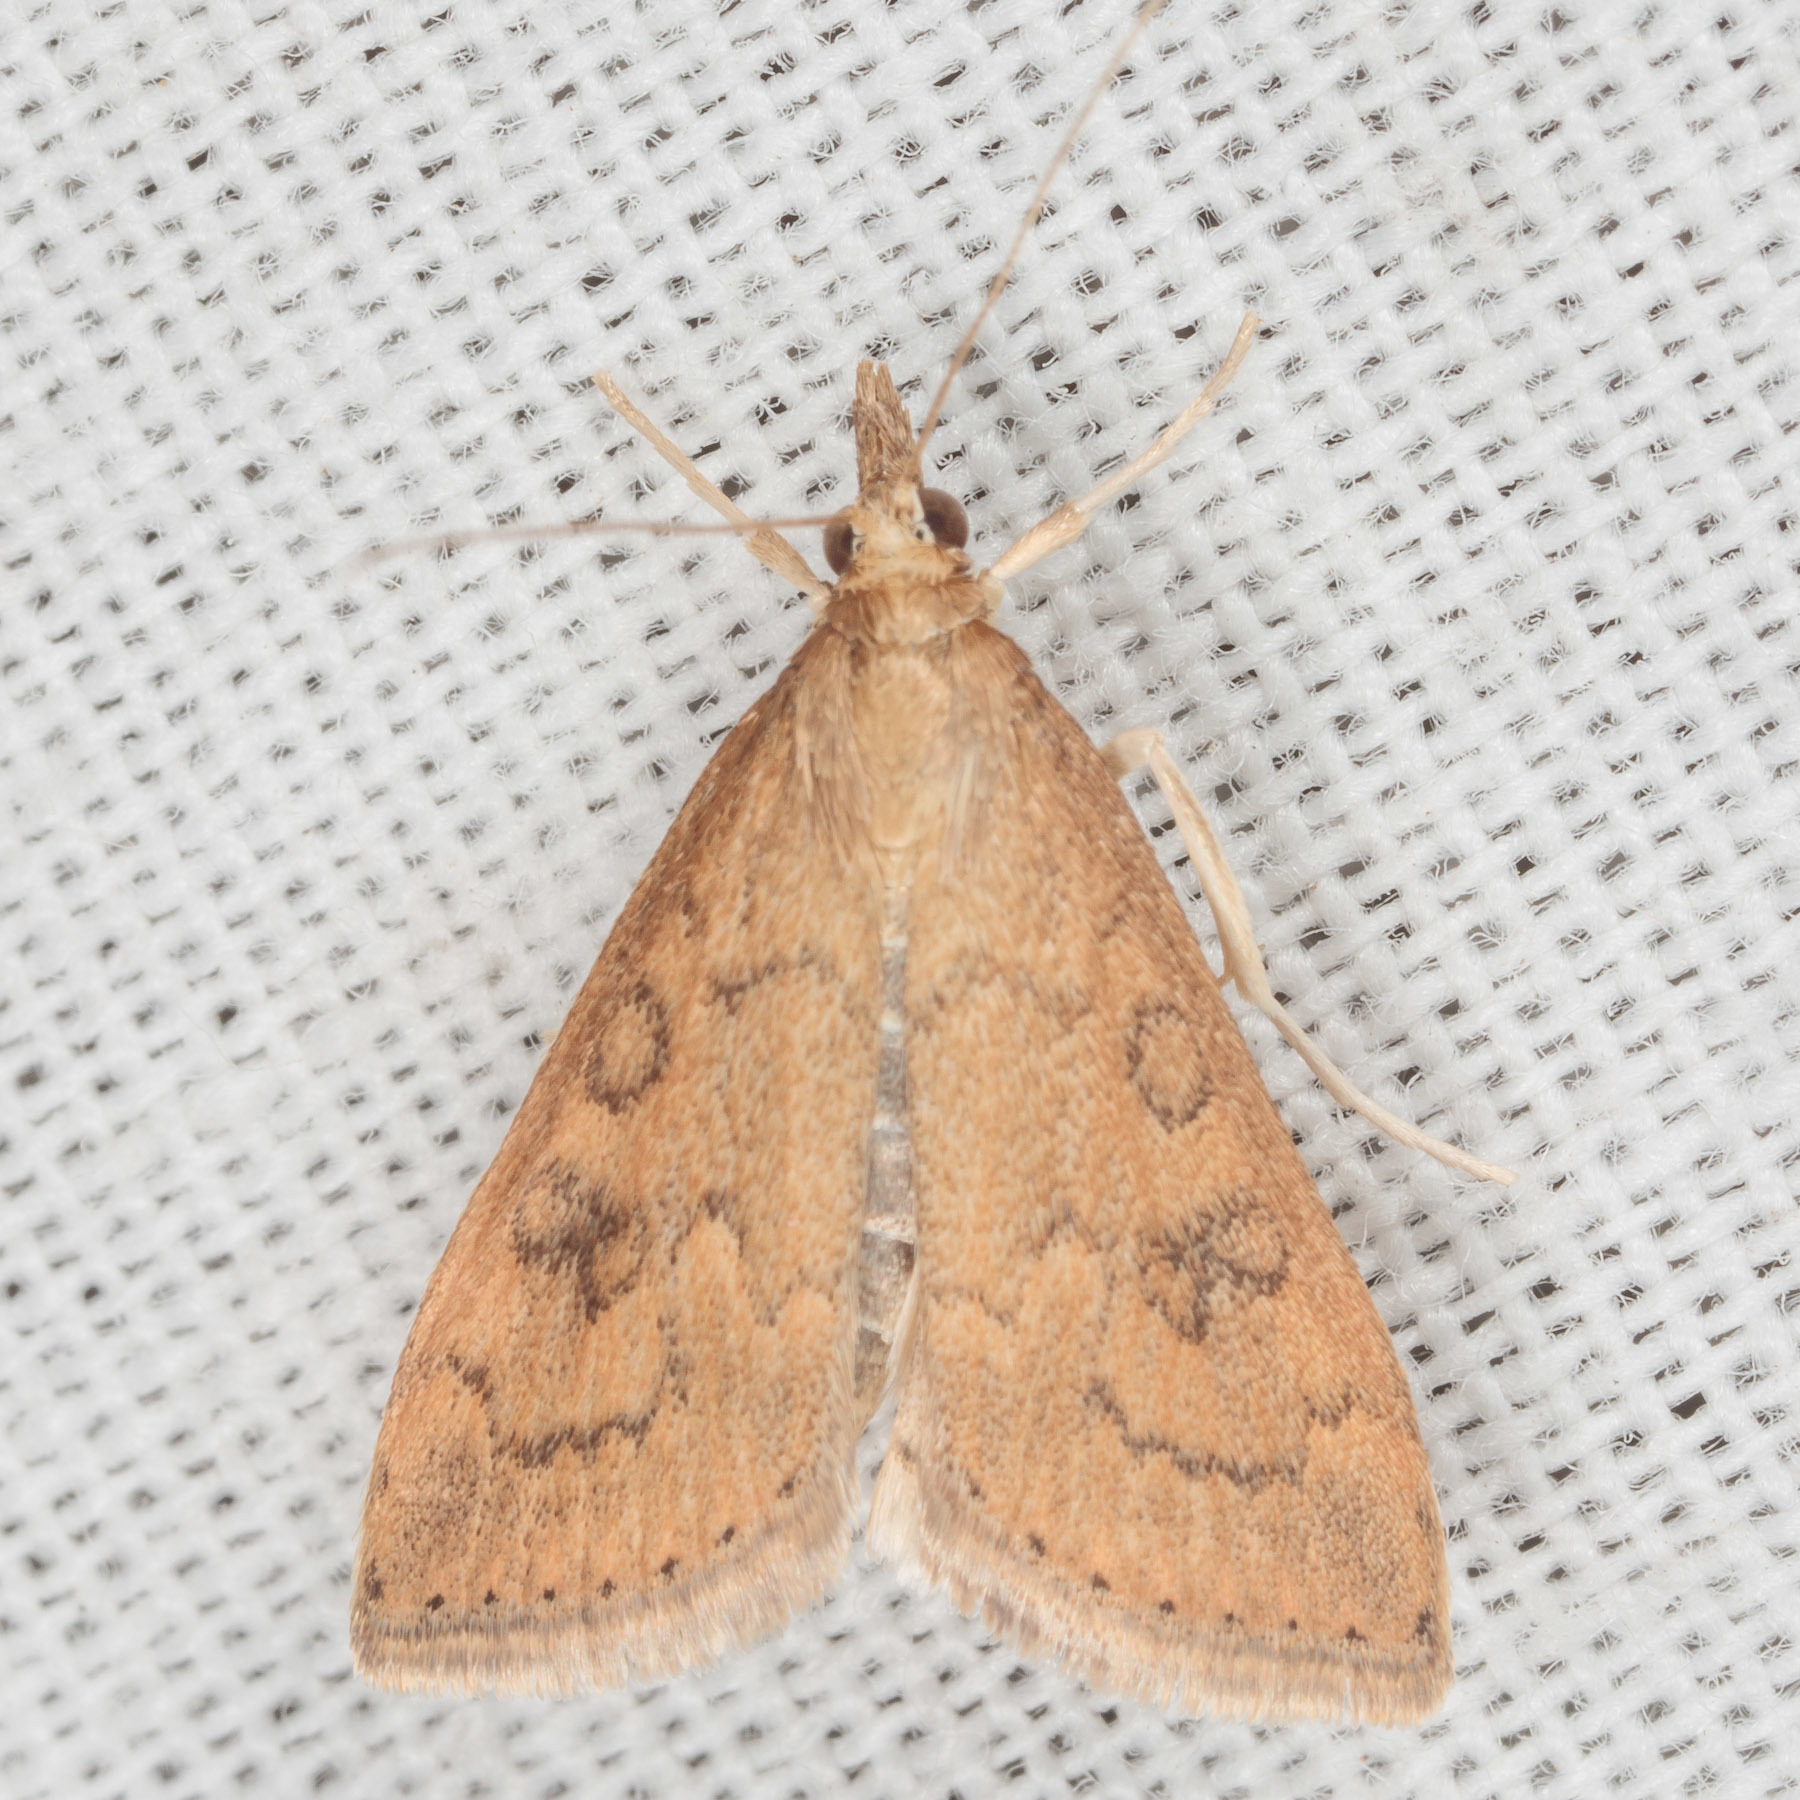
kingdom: Animalia
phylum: Arthropoda
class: Insecta
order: Lepidoptera
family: Crambidae
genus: Udea
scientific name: Udea rubigalis
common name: Celery leaftier moth
